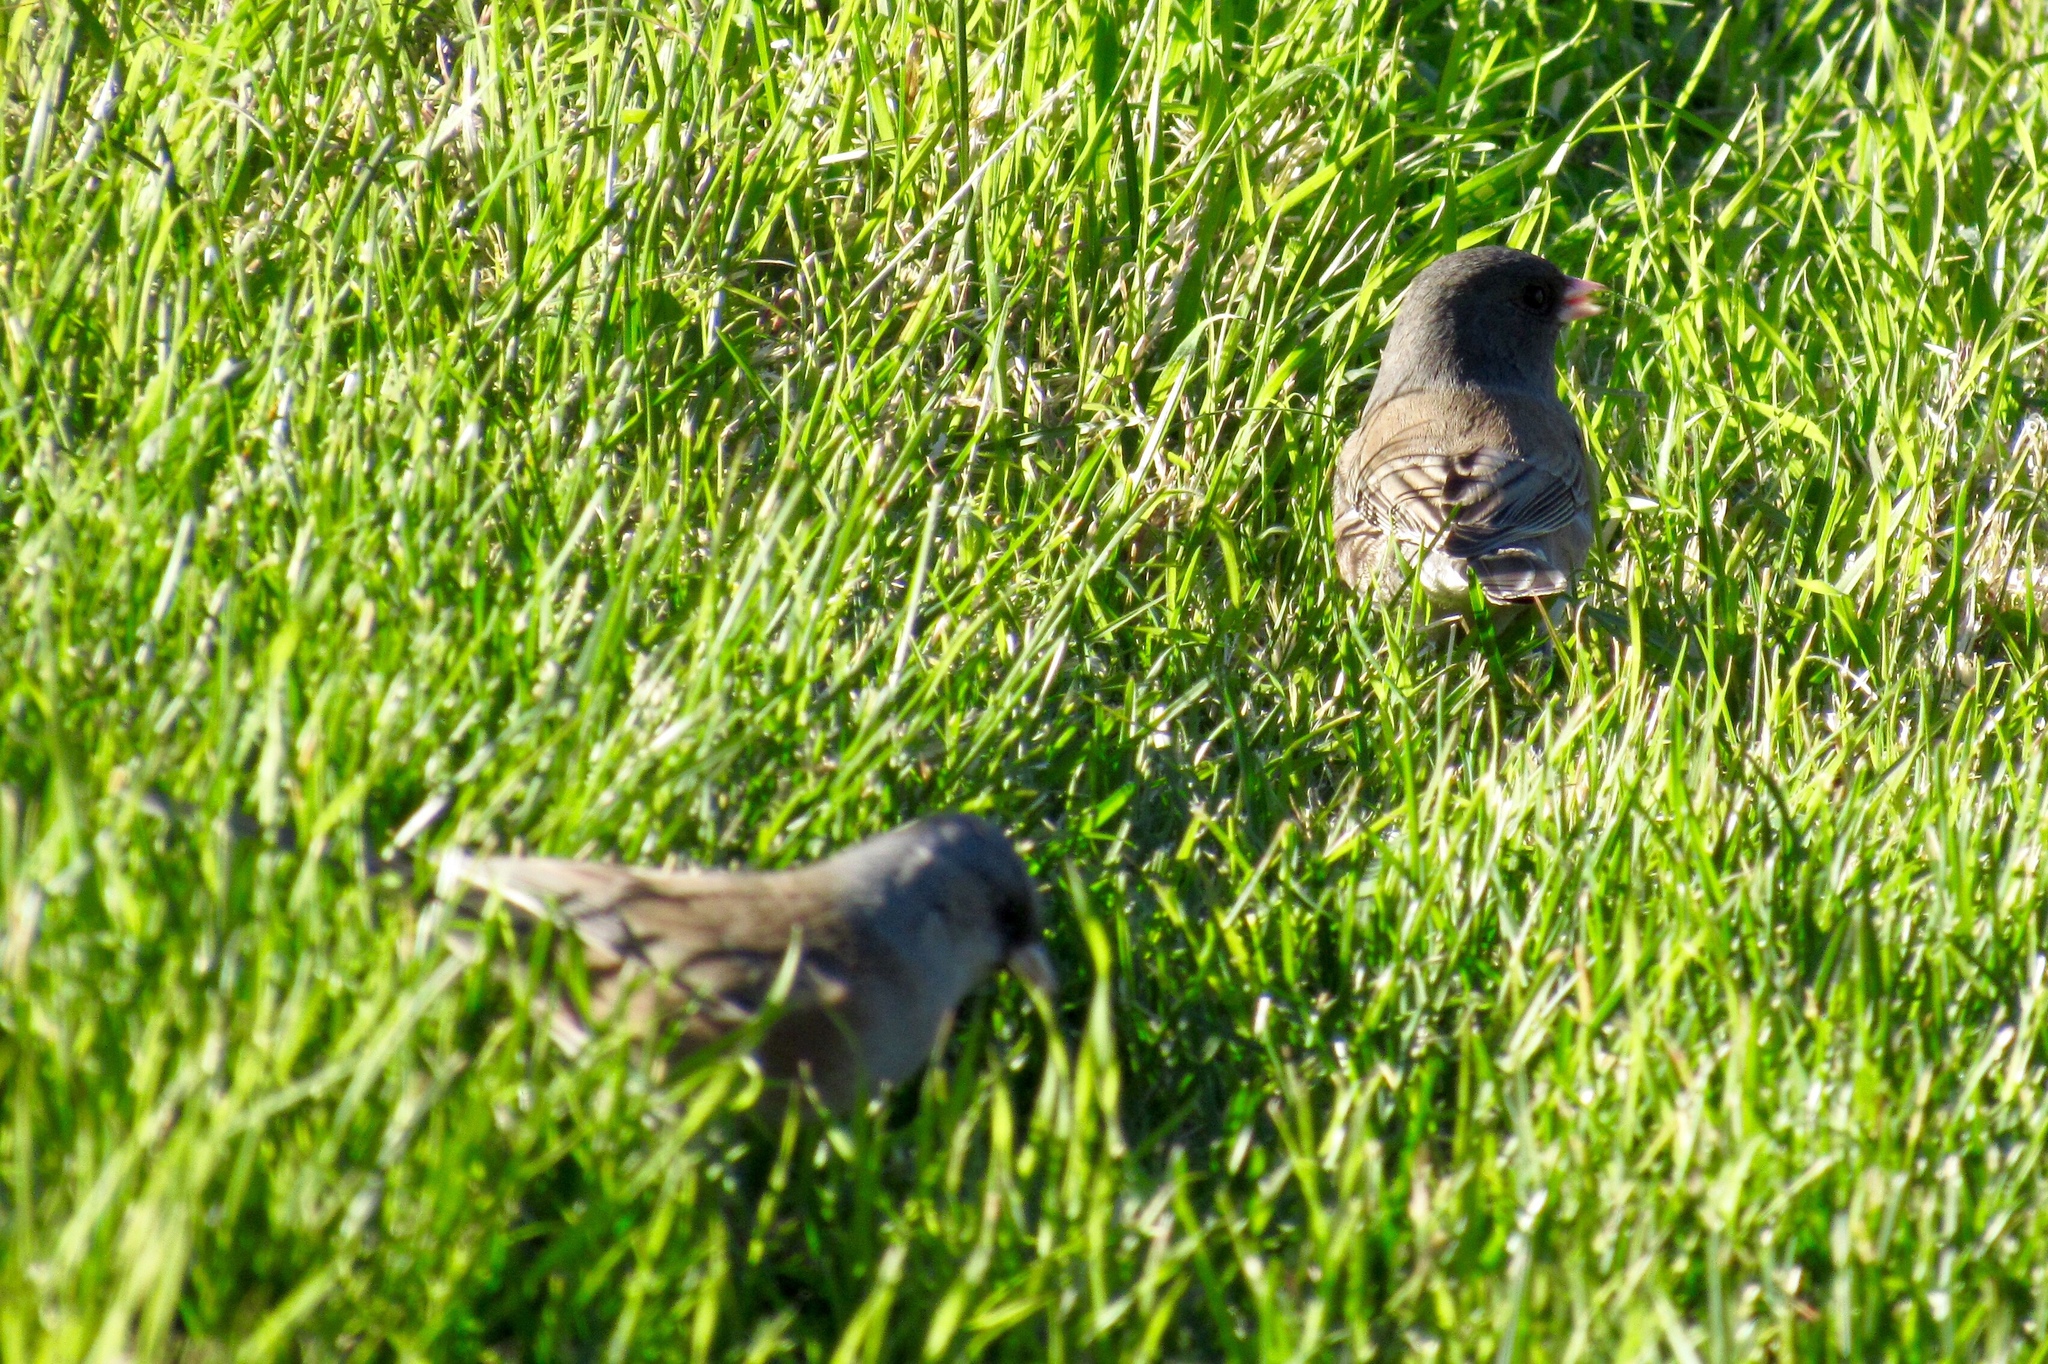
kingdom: Animalia
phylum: Chordata
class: Aves
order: Passeriformes
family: Passerellidae
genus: Junco
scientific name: Junco hyemalis
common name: Dark-eyed junco
